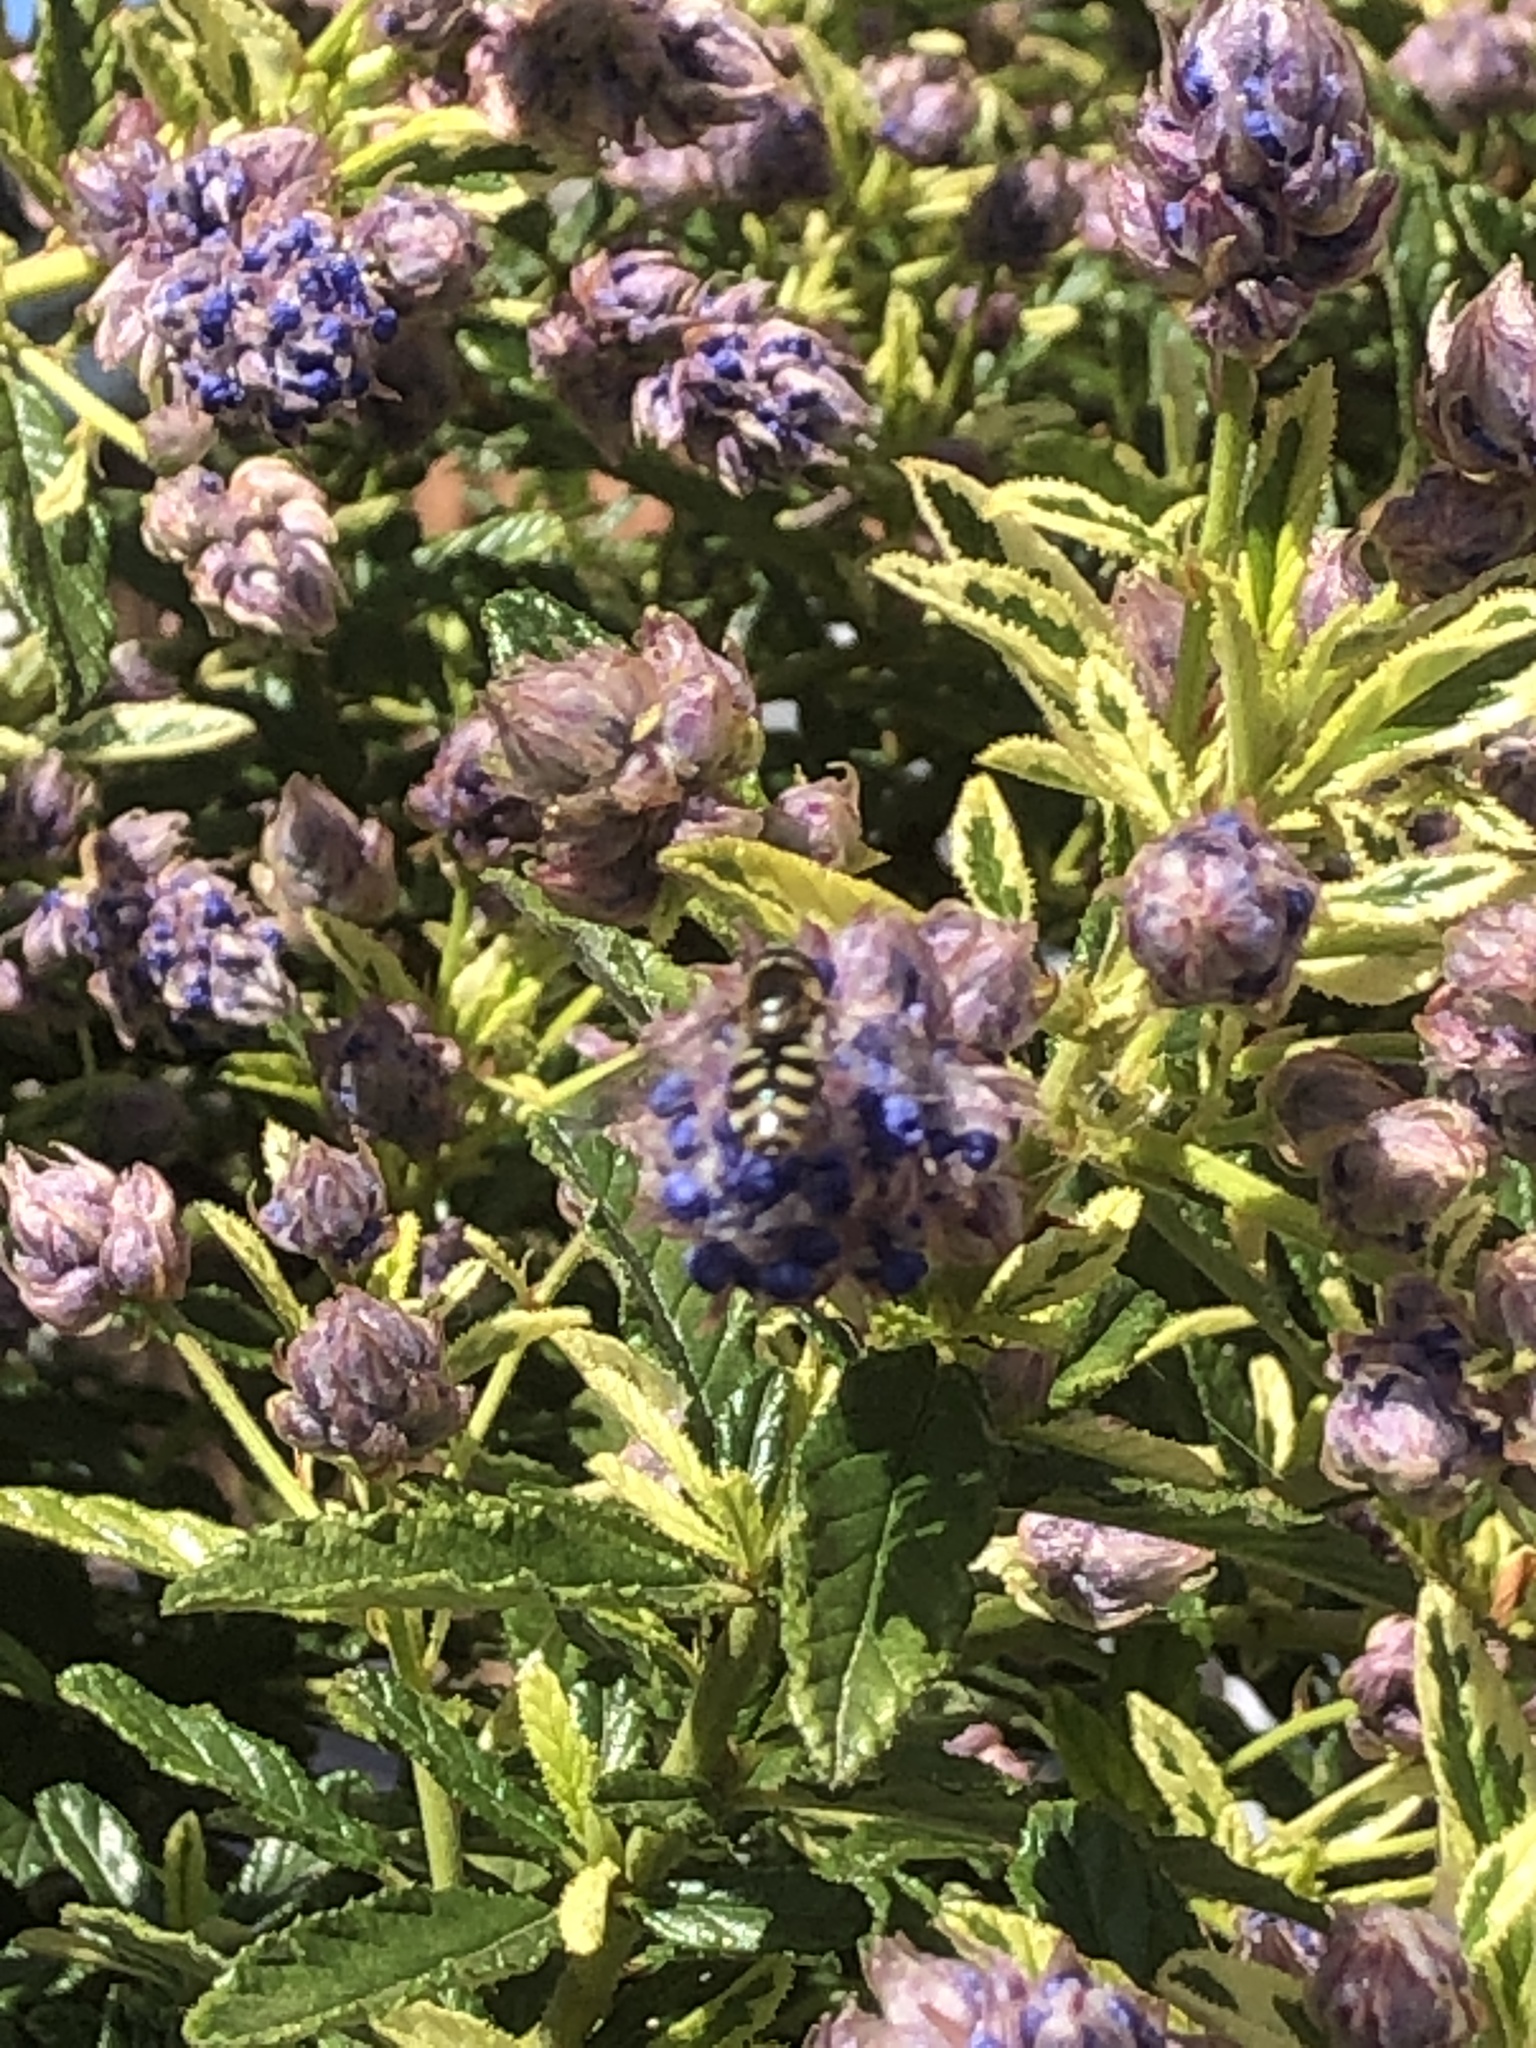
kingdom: Animalia
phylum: Arthropoda
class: Insecta
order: Diptera
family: Syrphidae
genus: Eupeodes
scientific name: Eupeodes
